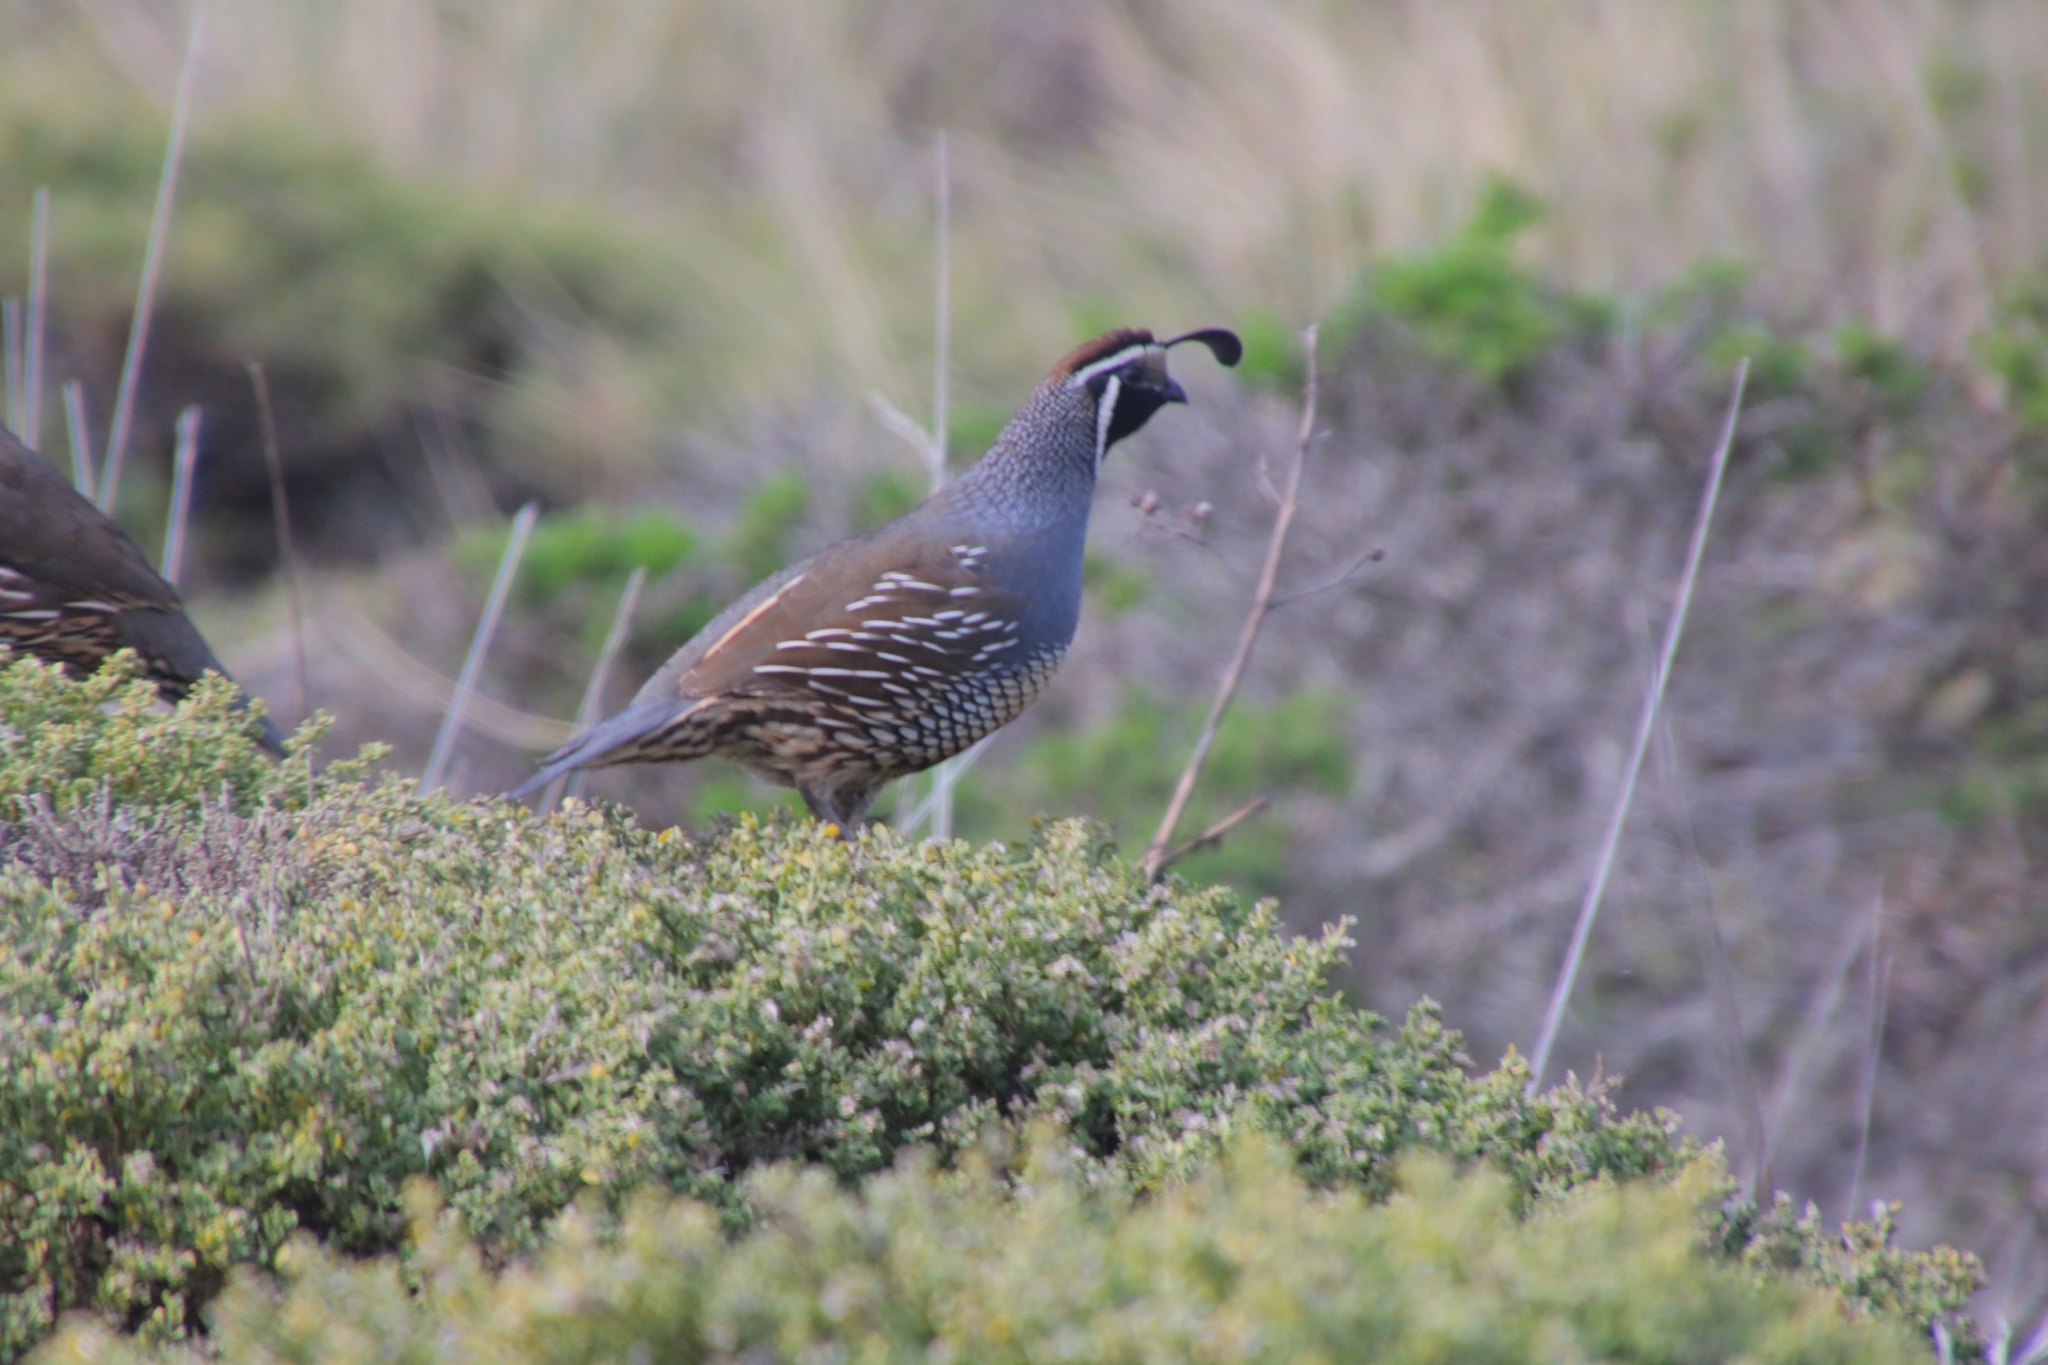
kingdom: Animalia
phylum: Chordata
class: Aves
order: Galliformes
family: Odontophoridae
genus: Callipepla
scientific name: Callipepla californica
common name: California quail
